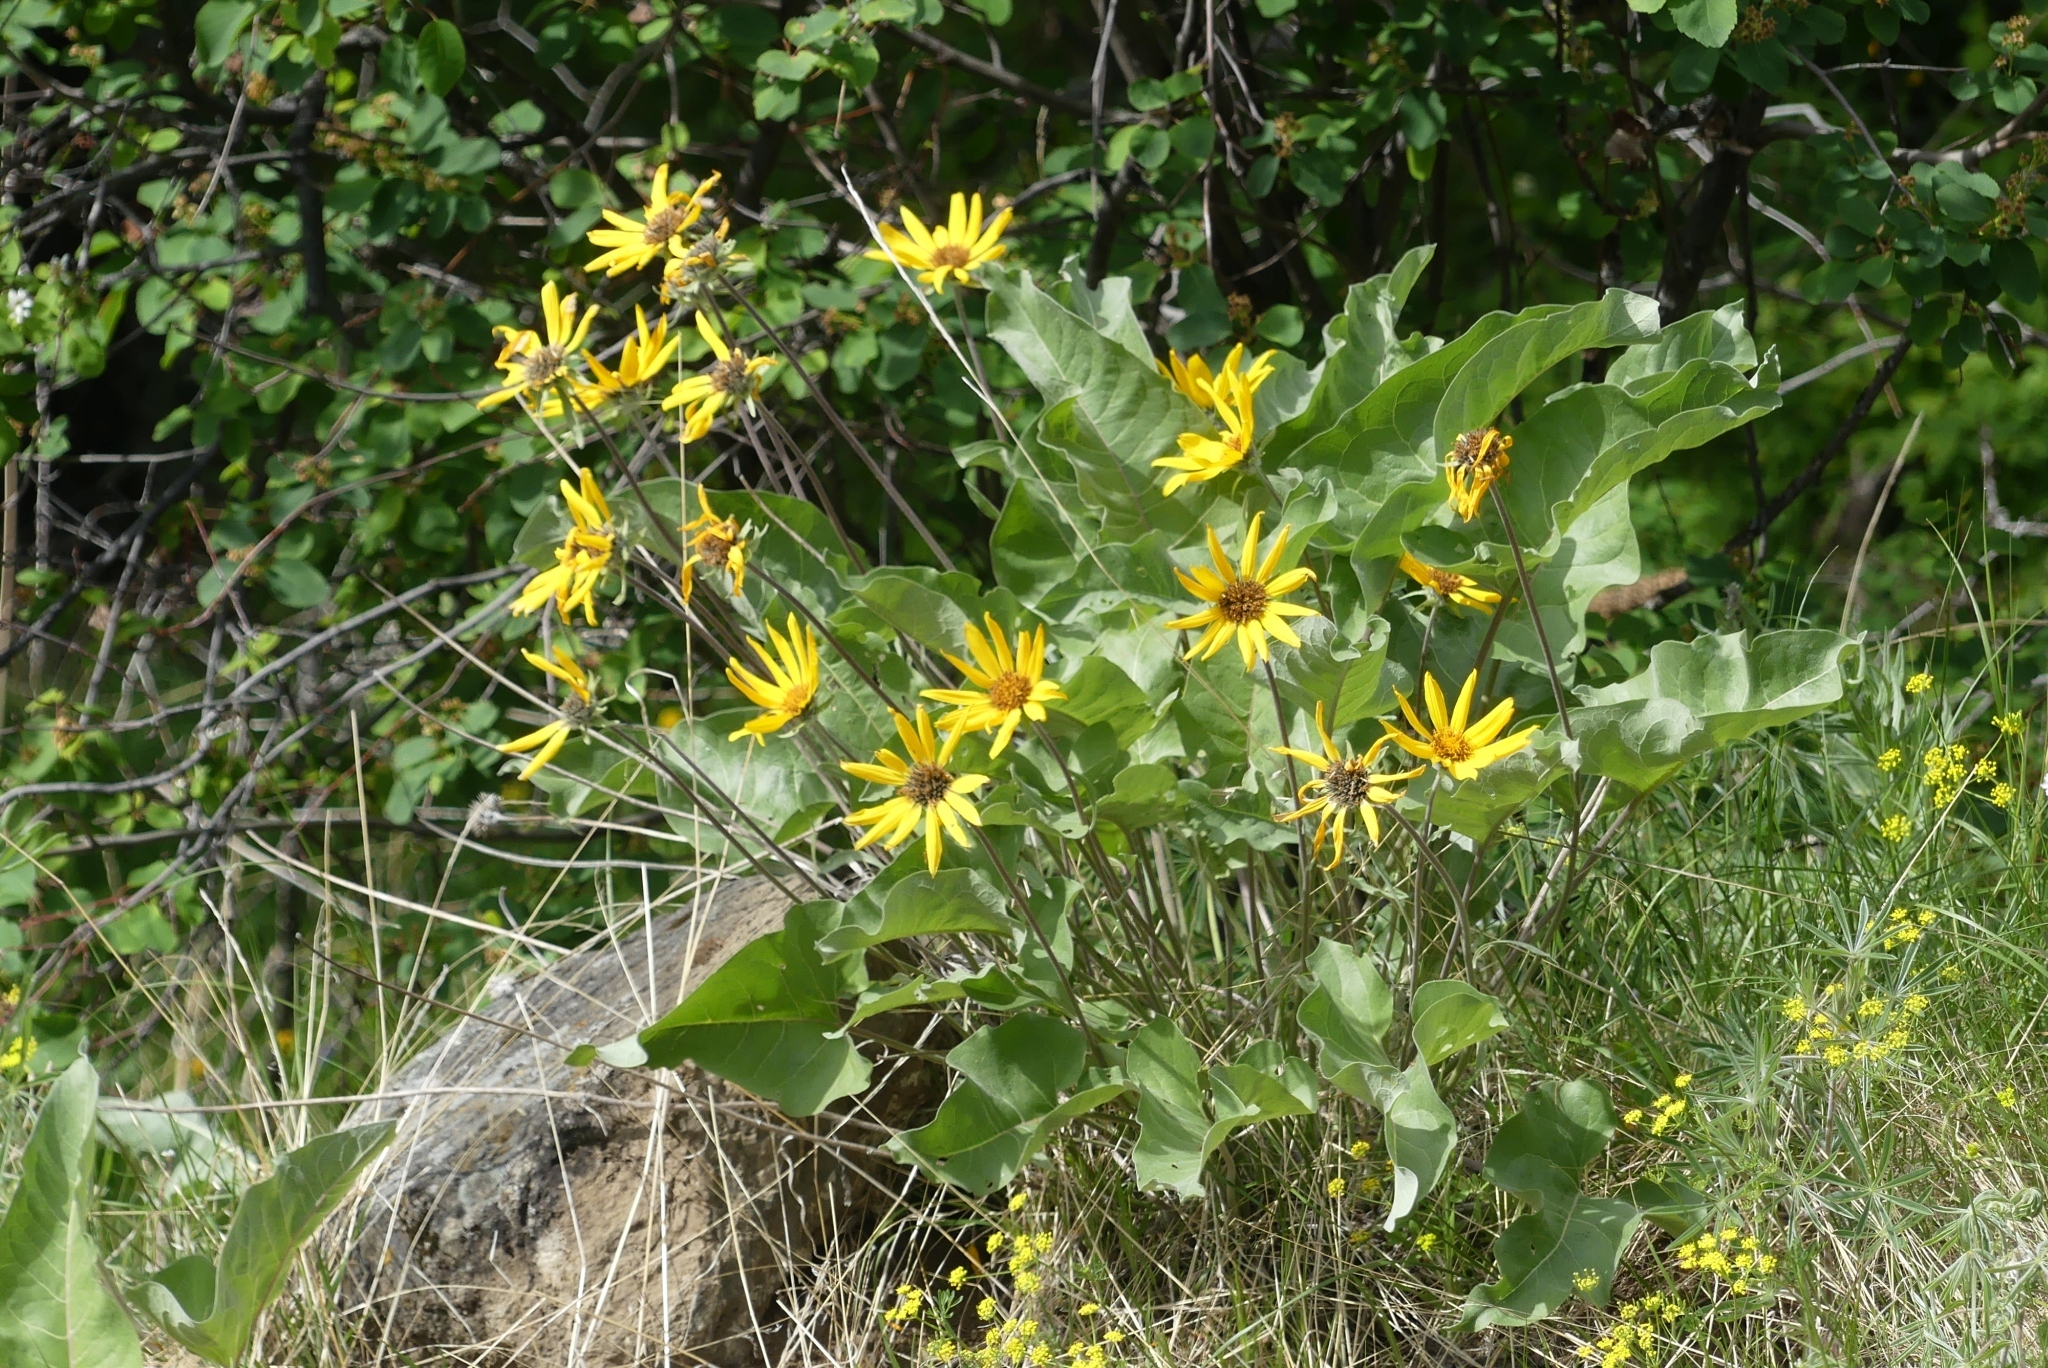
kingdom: Plantae
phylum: Tracheophyta
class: Magnoliopsida
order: Asterales
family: Asteraceae
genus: Wyethia
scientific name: Wyethia sagittata
